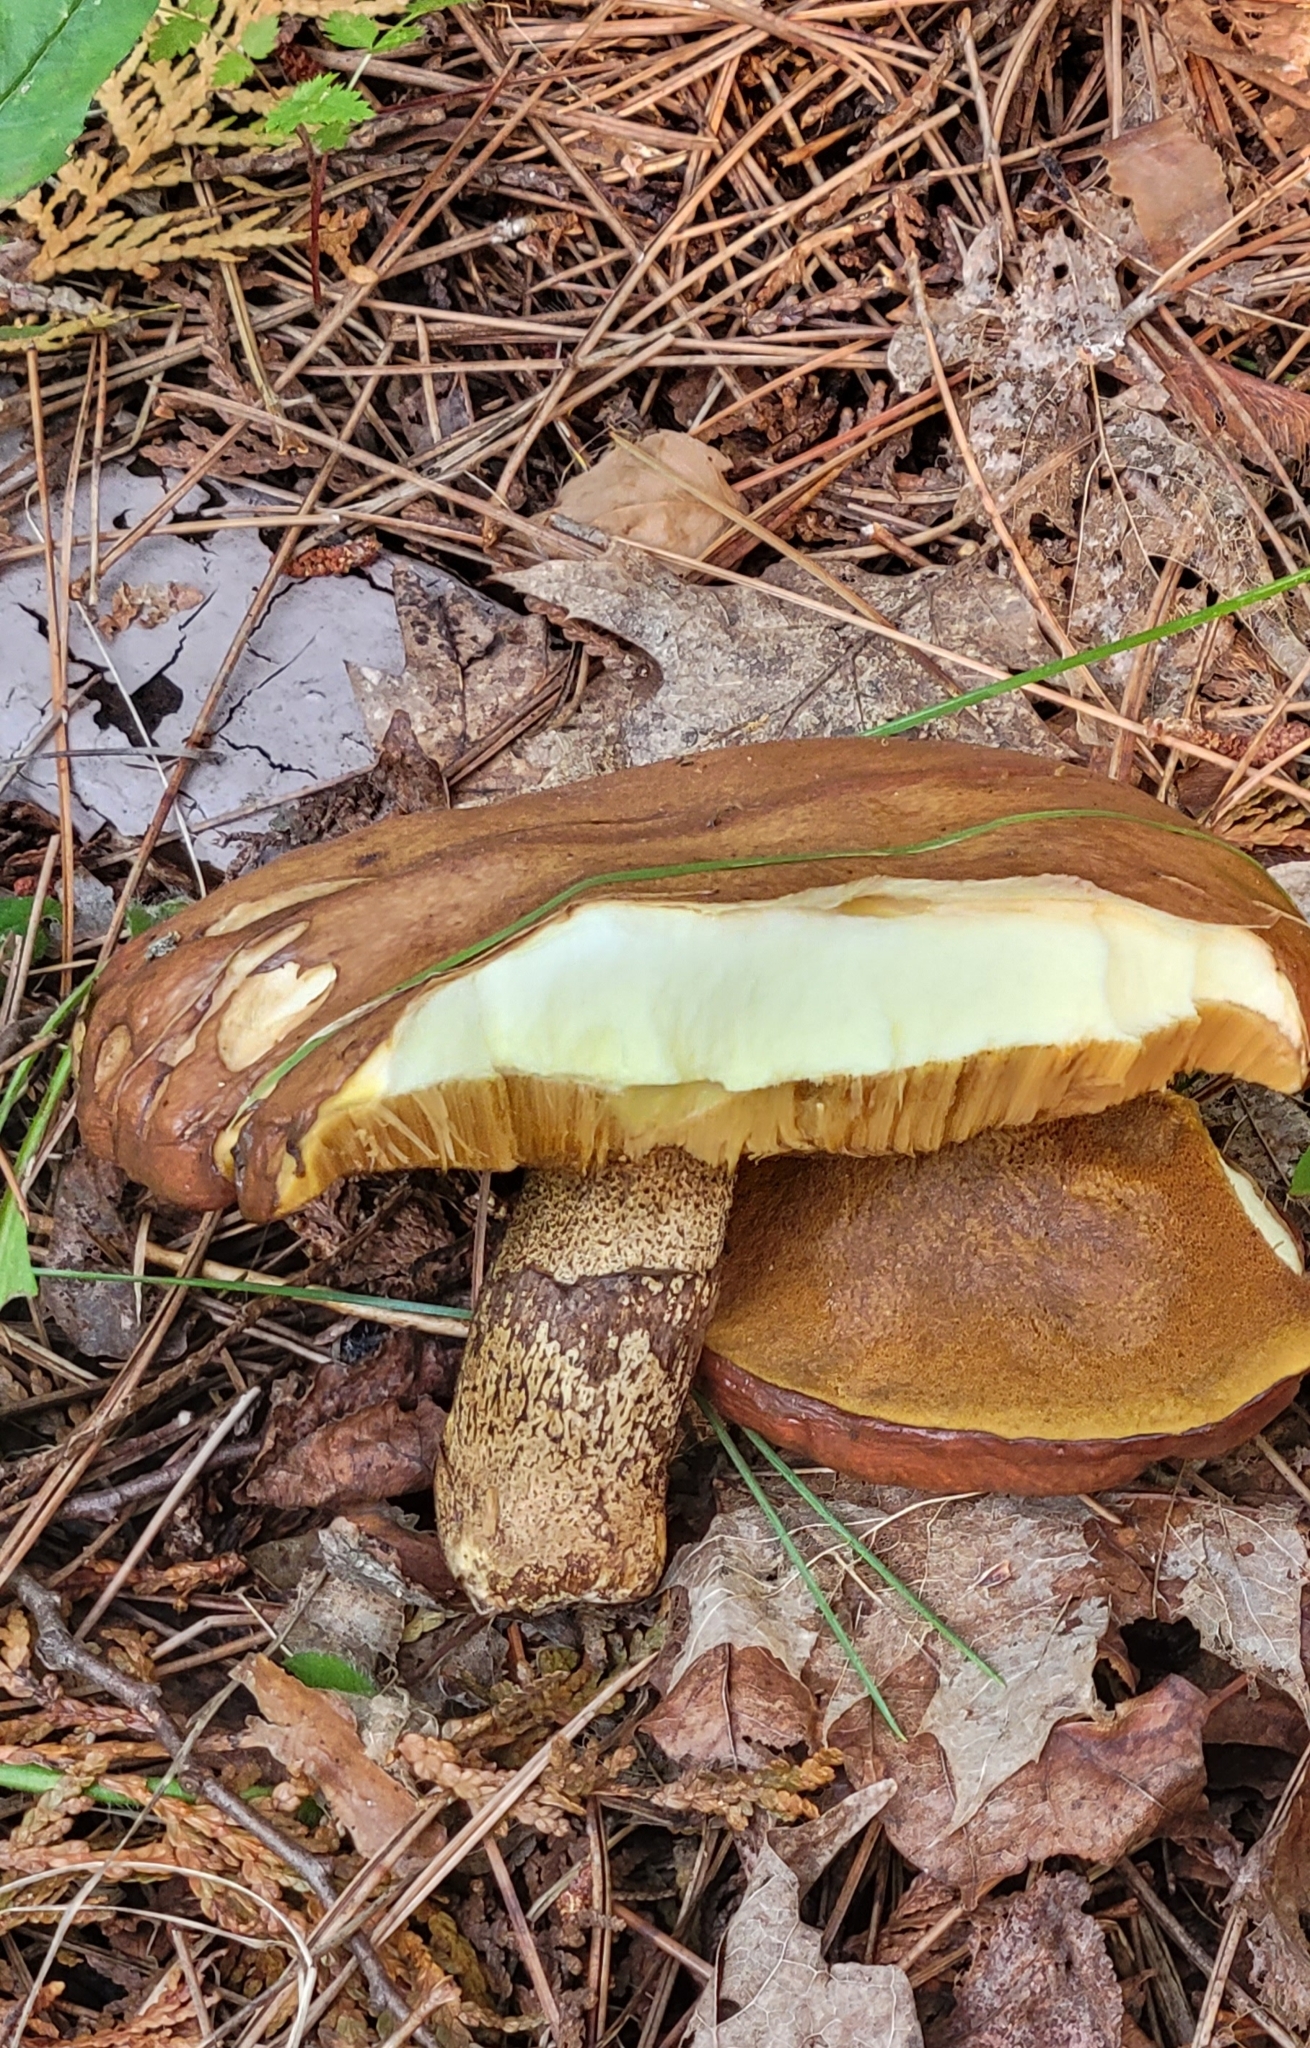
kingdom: Fungi
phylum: Basidiomycota
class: Agaricomycetes
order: Boletales
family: Suillaceae
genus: Suillus
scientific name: Suillus
